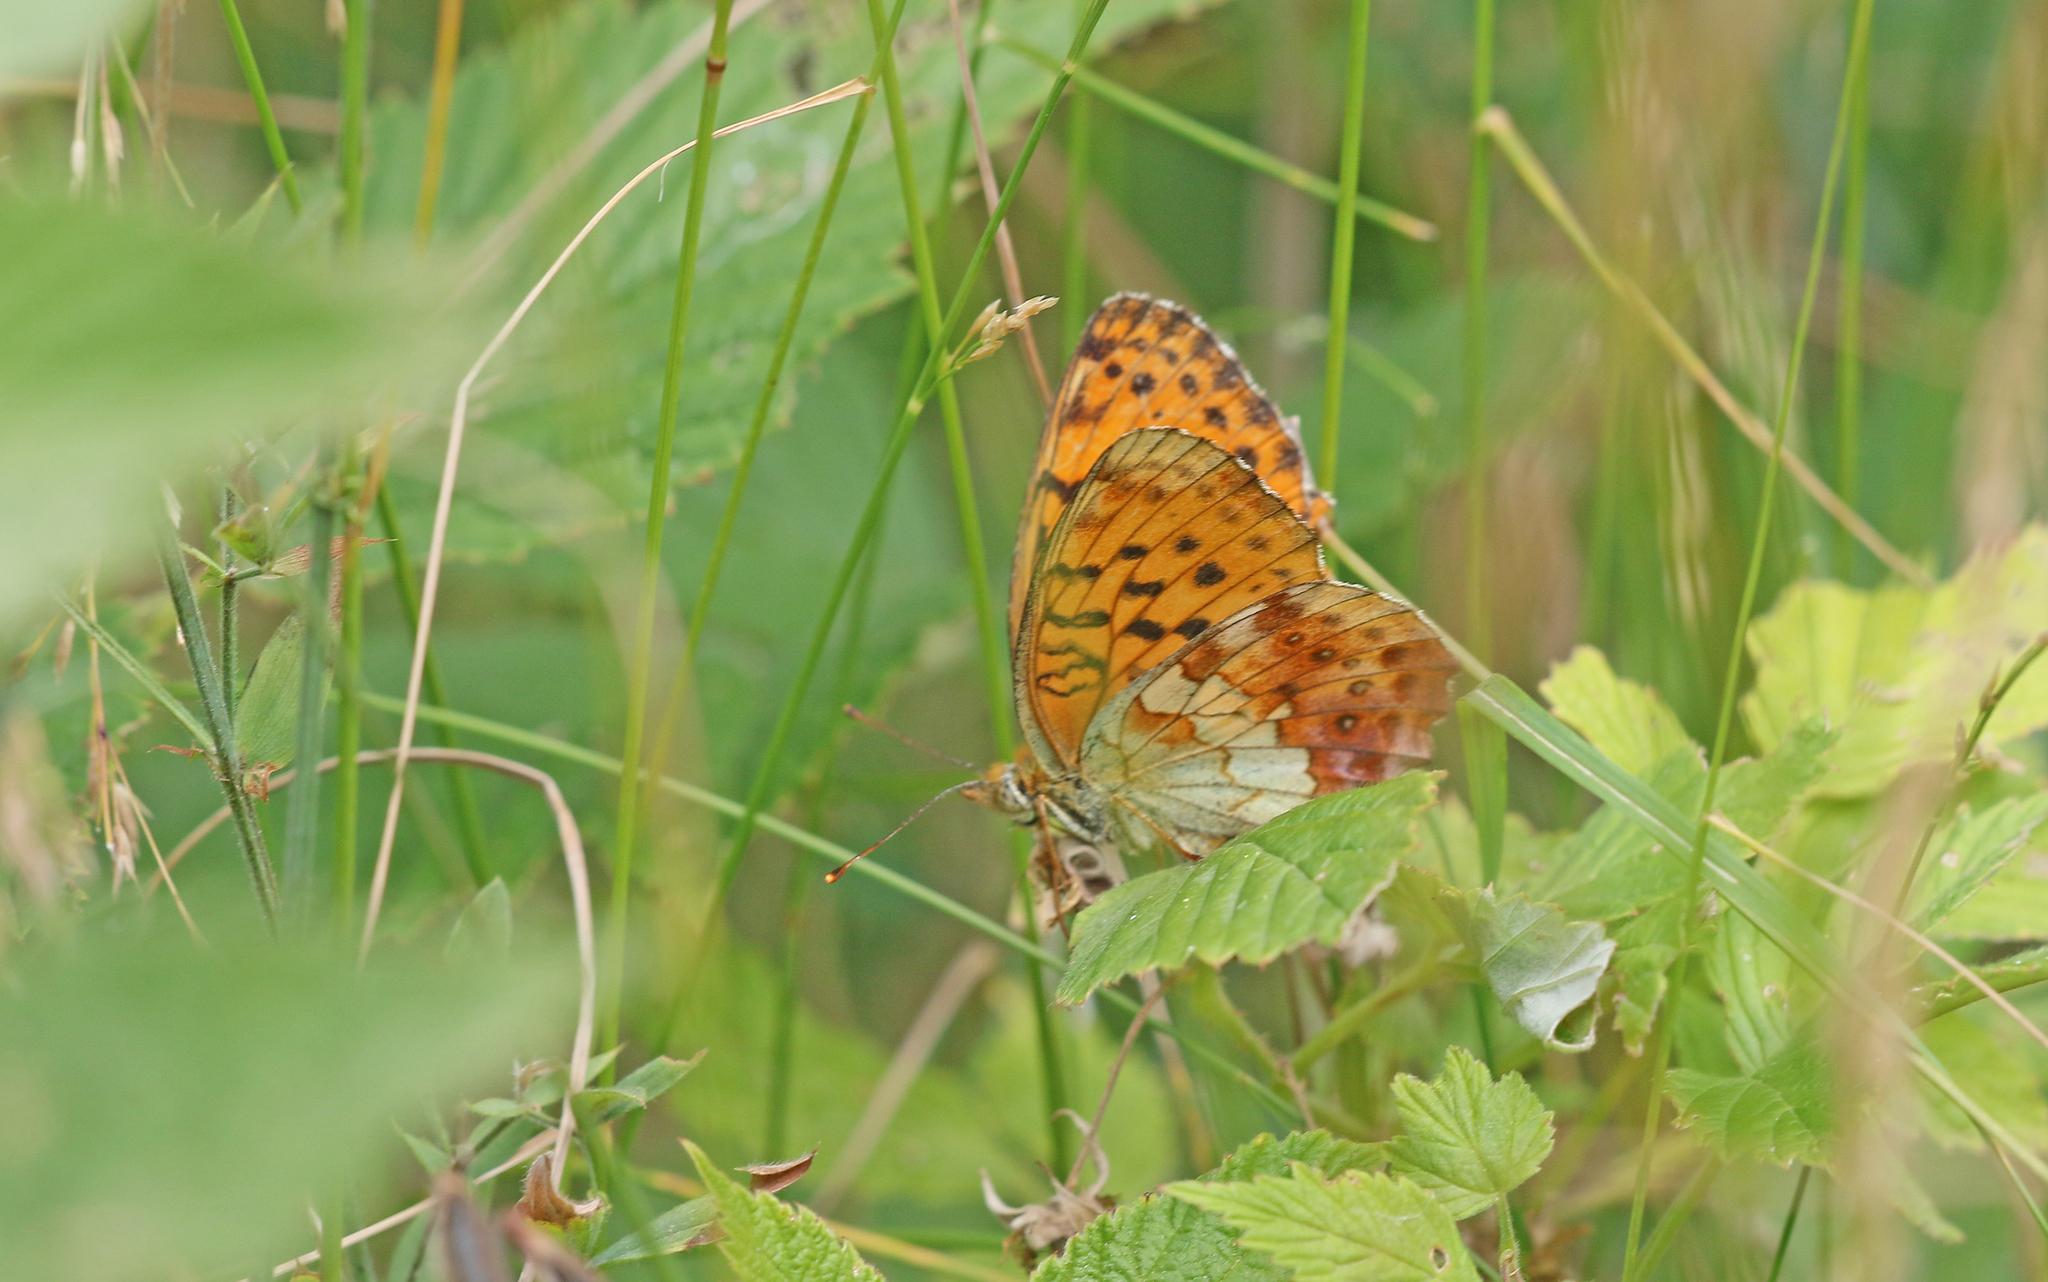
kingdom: Animalia
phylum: Arthropoda
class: Insecta
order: Lepidoptera
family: Nymphalidae
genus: Brenthis
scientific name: Brenthis daphne
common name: Marbled fritillary
